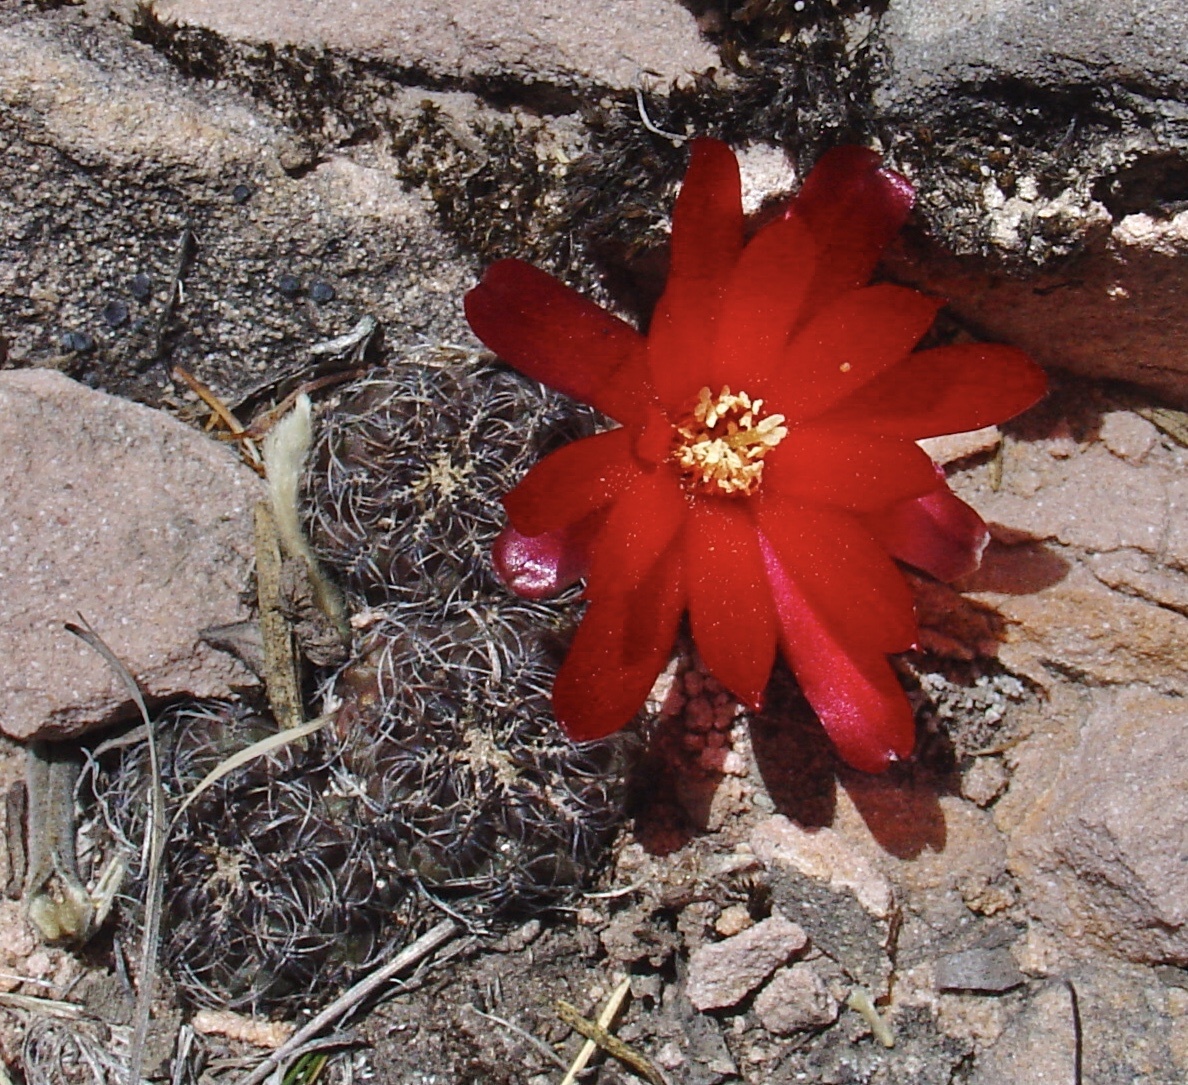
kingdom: Plantae
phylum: Tracheophyta
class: Magnoliopsida
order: Caryophyllales
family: Cactaceae
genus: Weingartia
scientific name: Weingartia canigueralii
